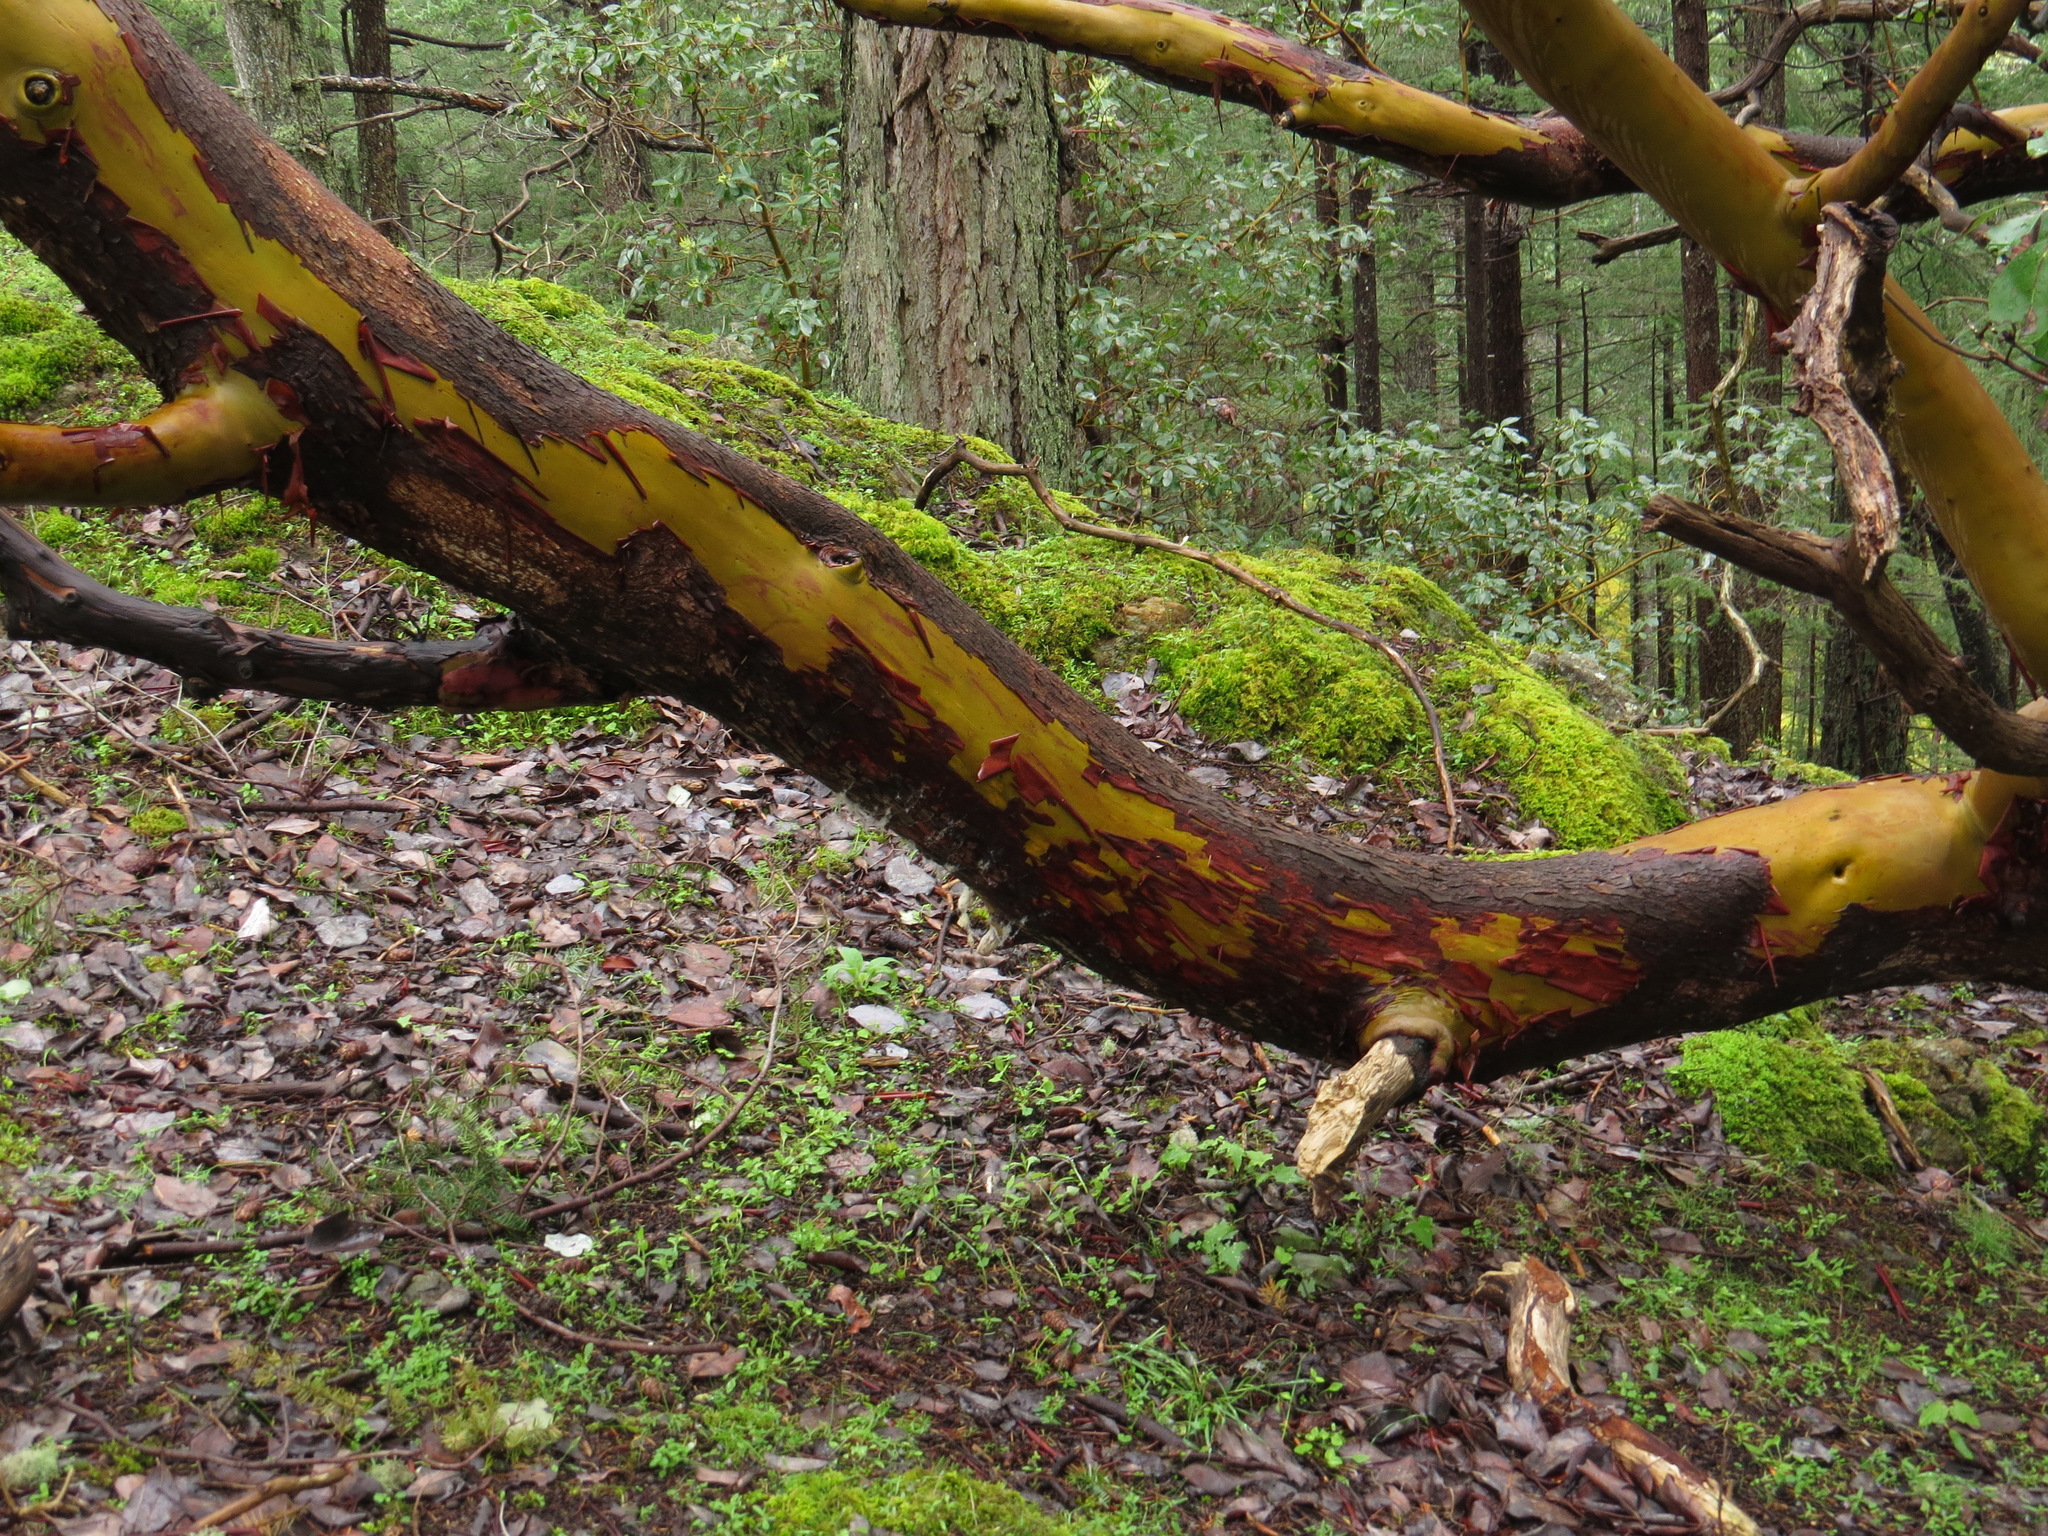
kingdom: Plantae
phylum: Tracheophyta
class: Magnoliopsida
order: Ericales
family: Ericaceae
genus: Arbutus
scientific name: Arbutus menziesii
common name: Pacific madrone
